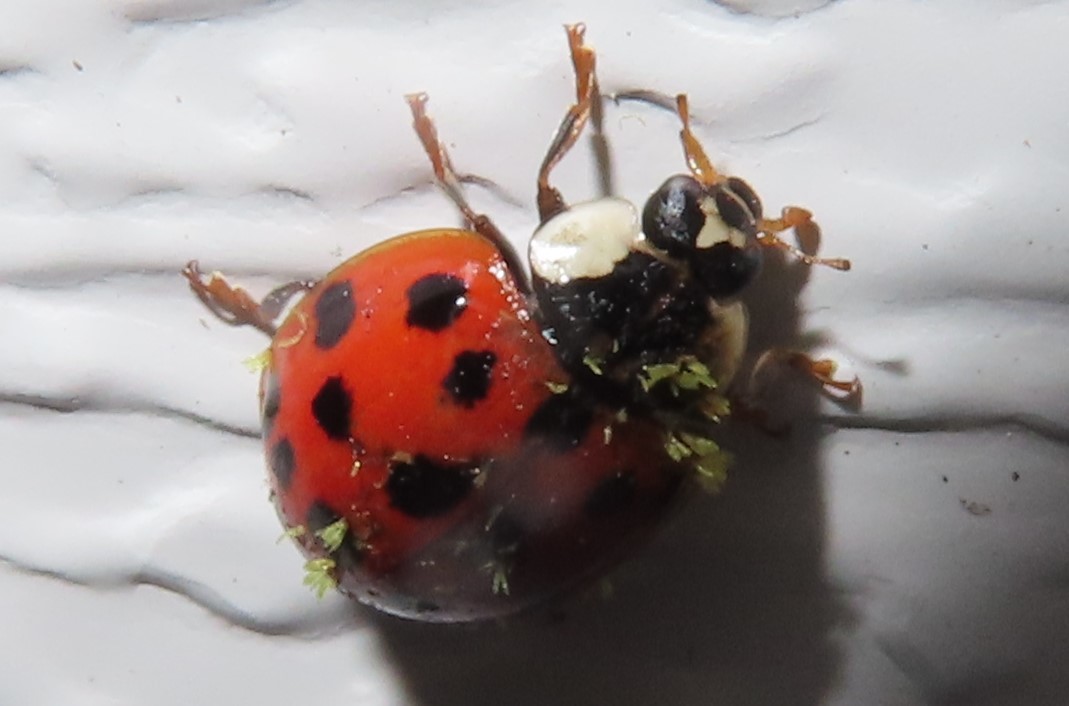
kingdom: Animalia
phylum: Arthropoda
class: Insecta
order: Coleoptera
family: Coccinellidae
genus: Harmonia
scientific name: Harmonia axyridis
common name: Harlequin ladybird
